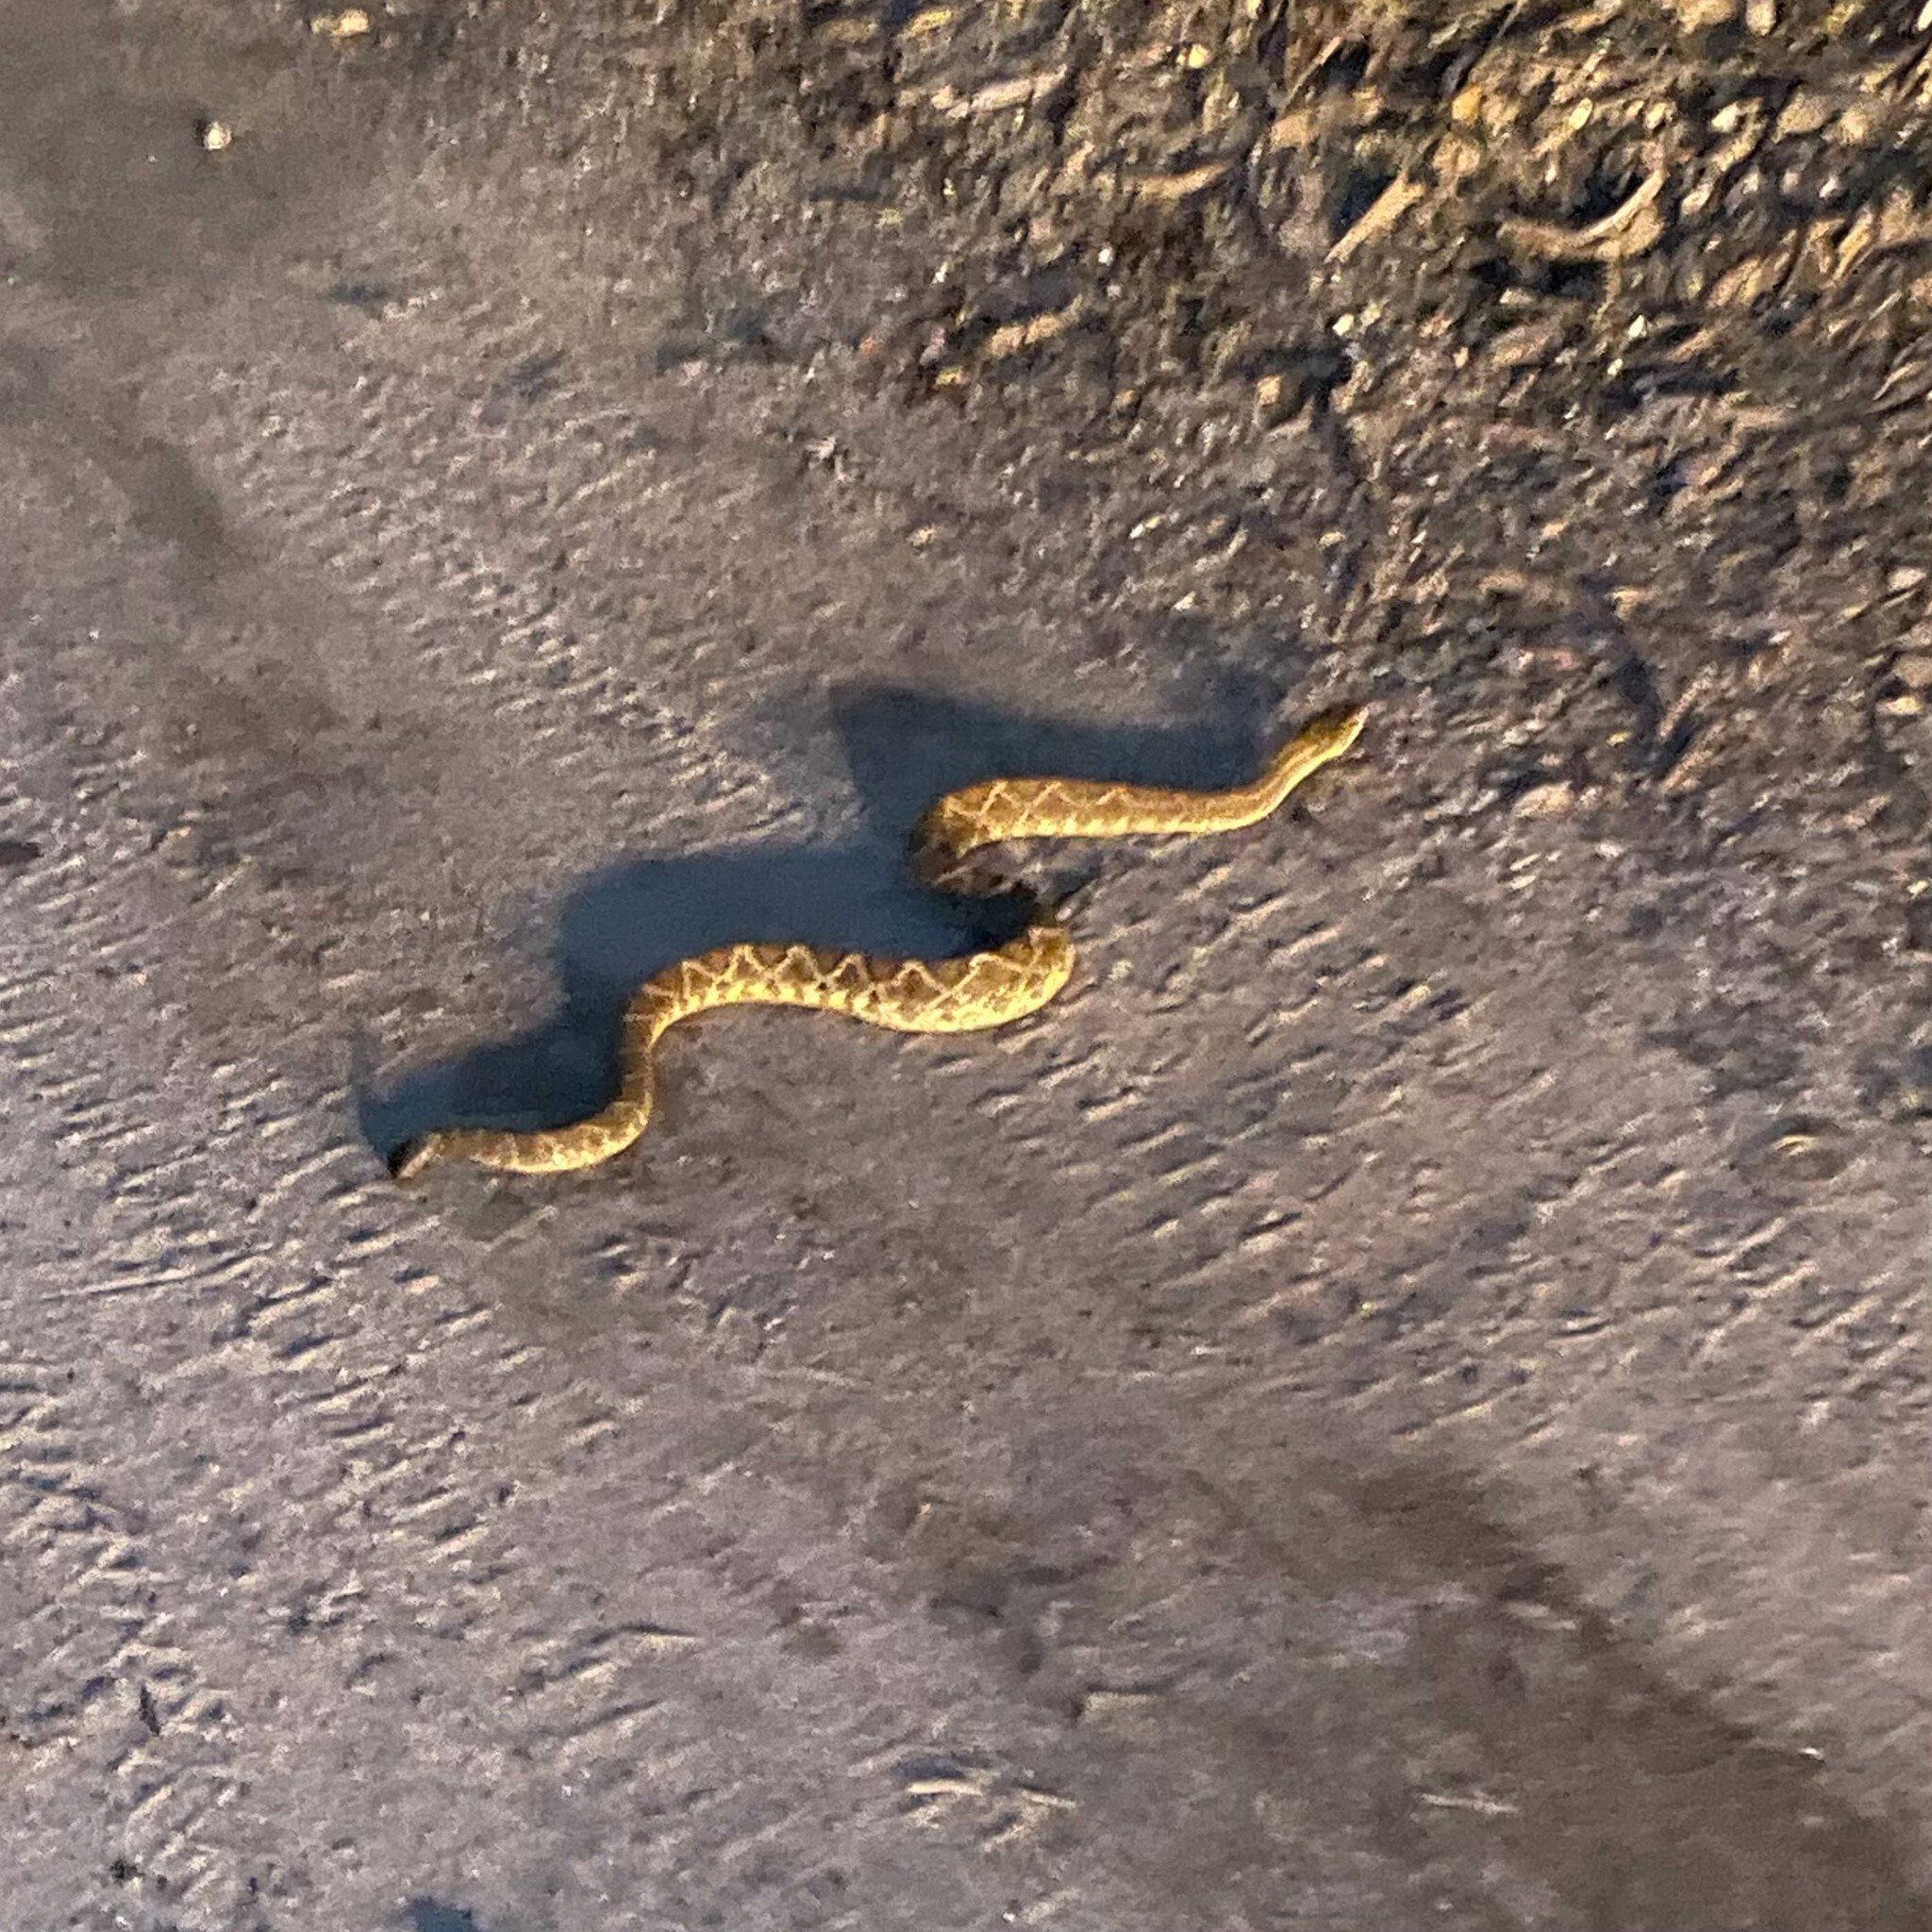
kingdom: Animalia
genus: Crotalus
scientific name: Crotalus durissus
